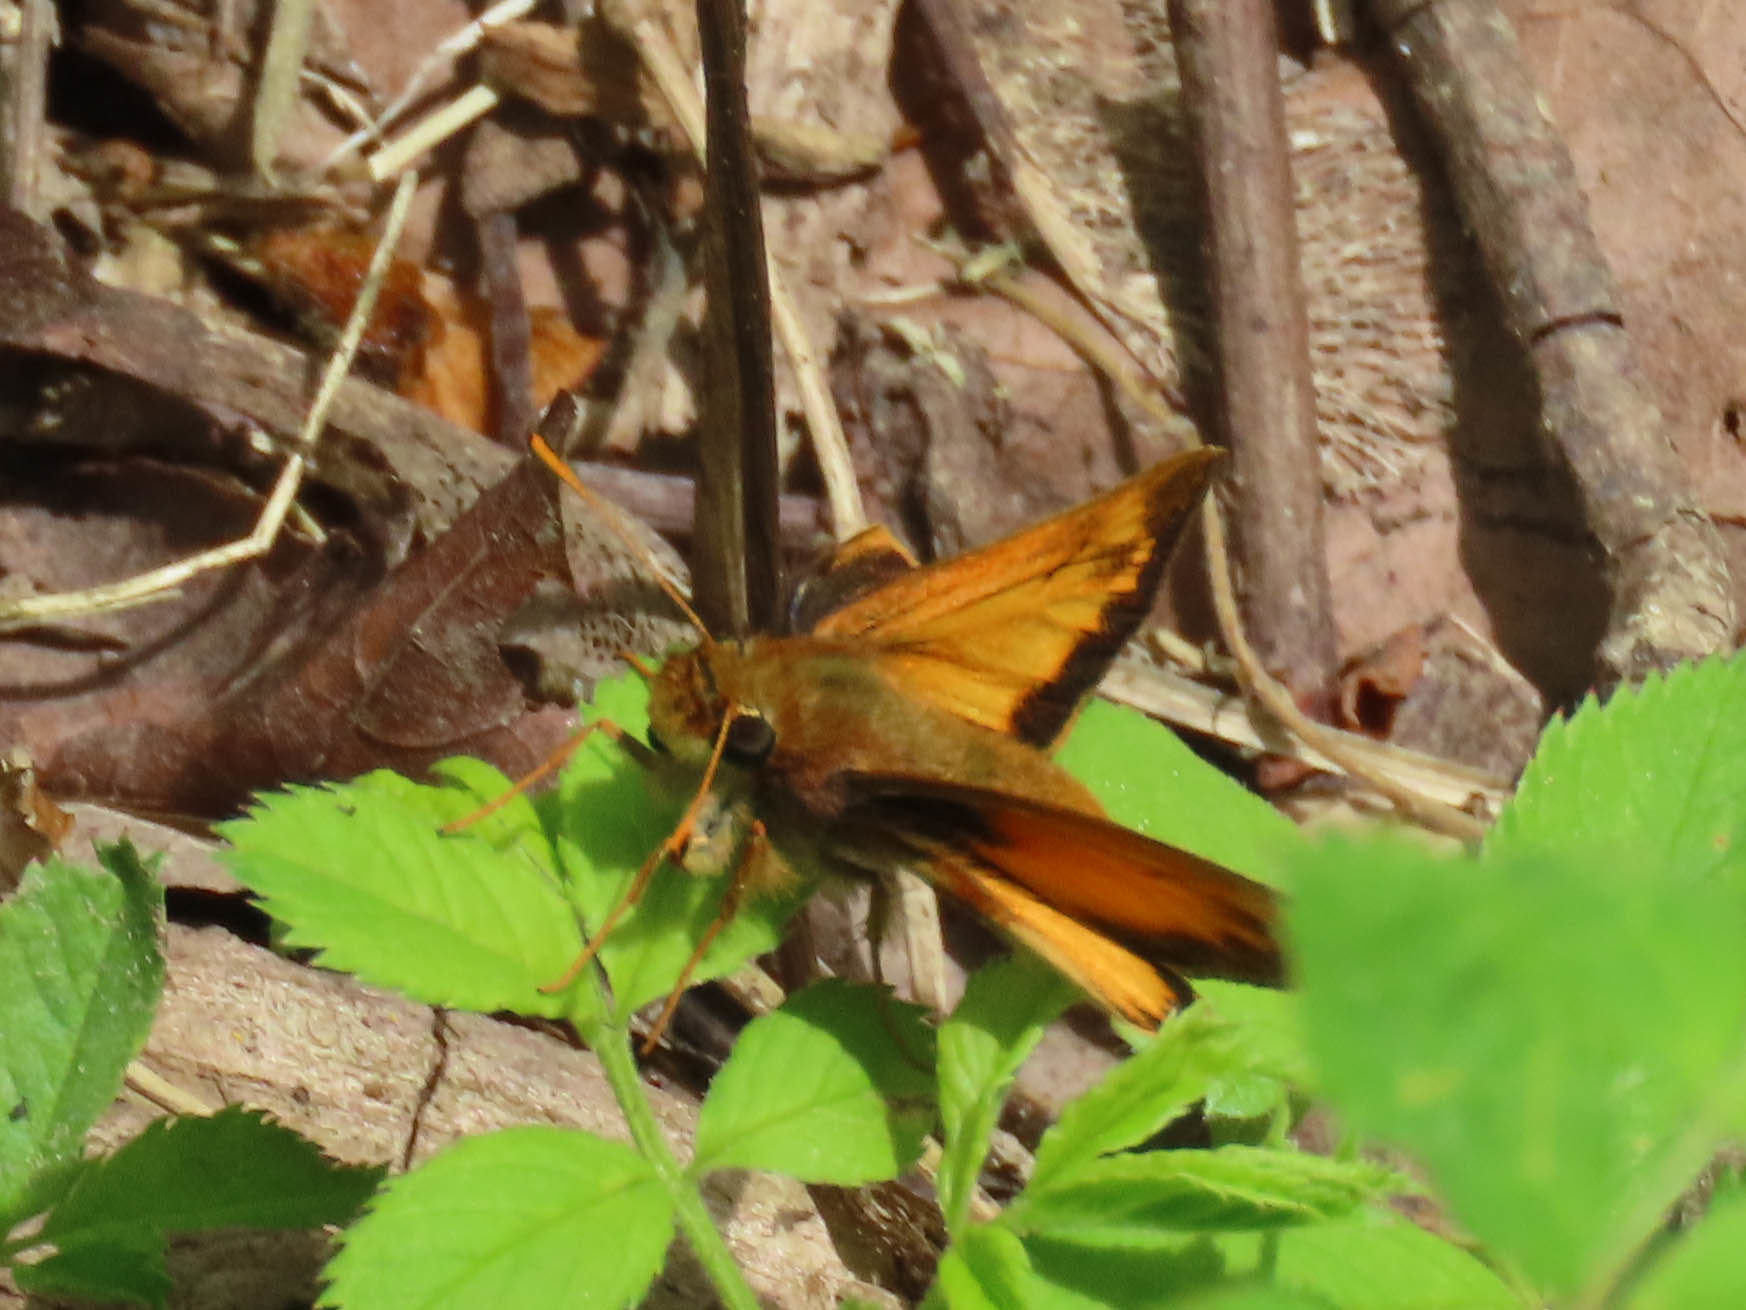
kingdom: Animalia
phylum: Arthropoda
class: Insecta
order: Lepidoptera
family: Hesperiidae
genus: Lon
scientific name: Lon zabulon
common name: Zabulon skipper
